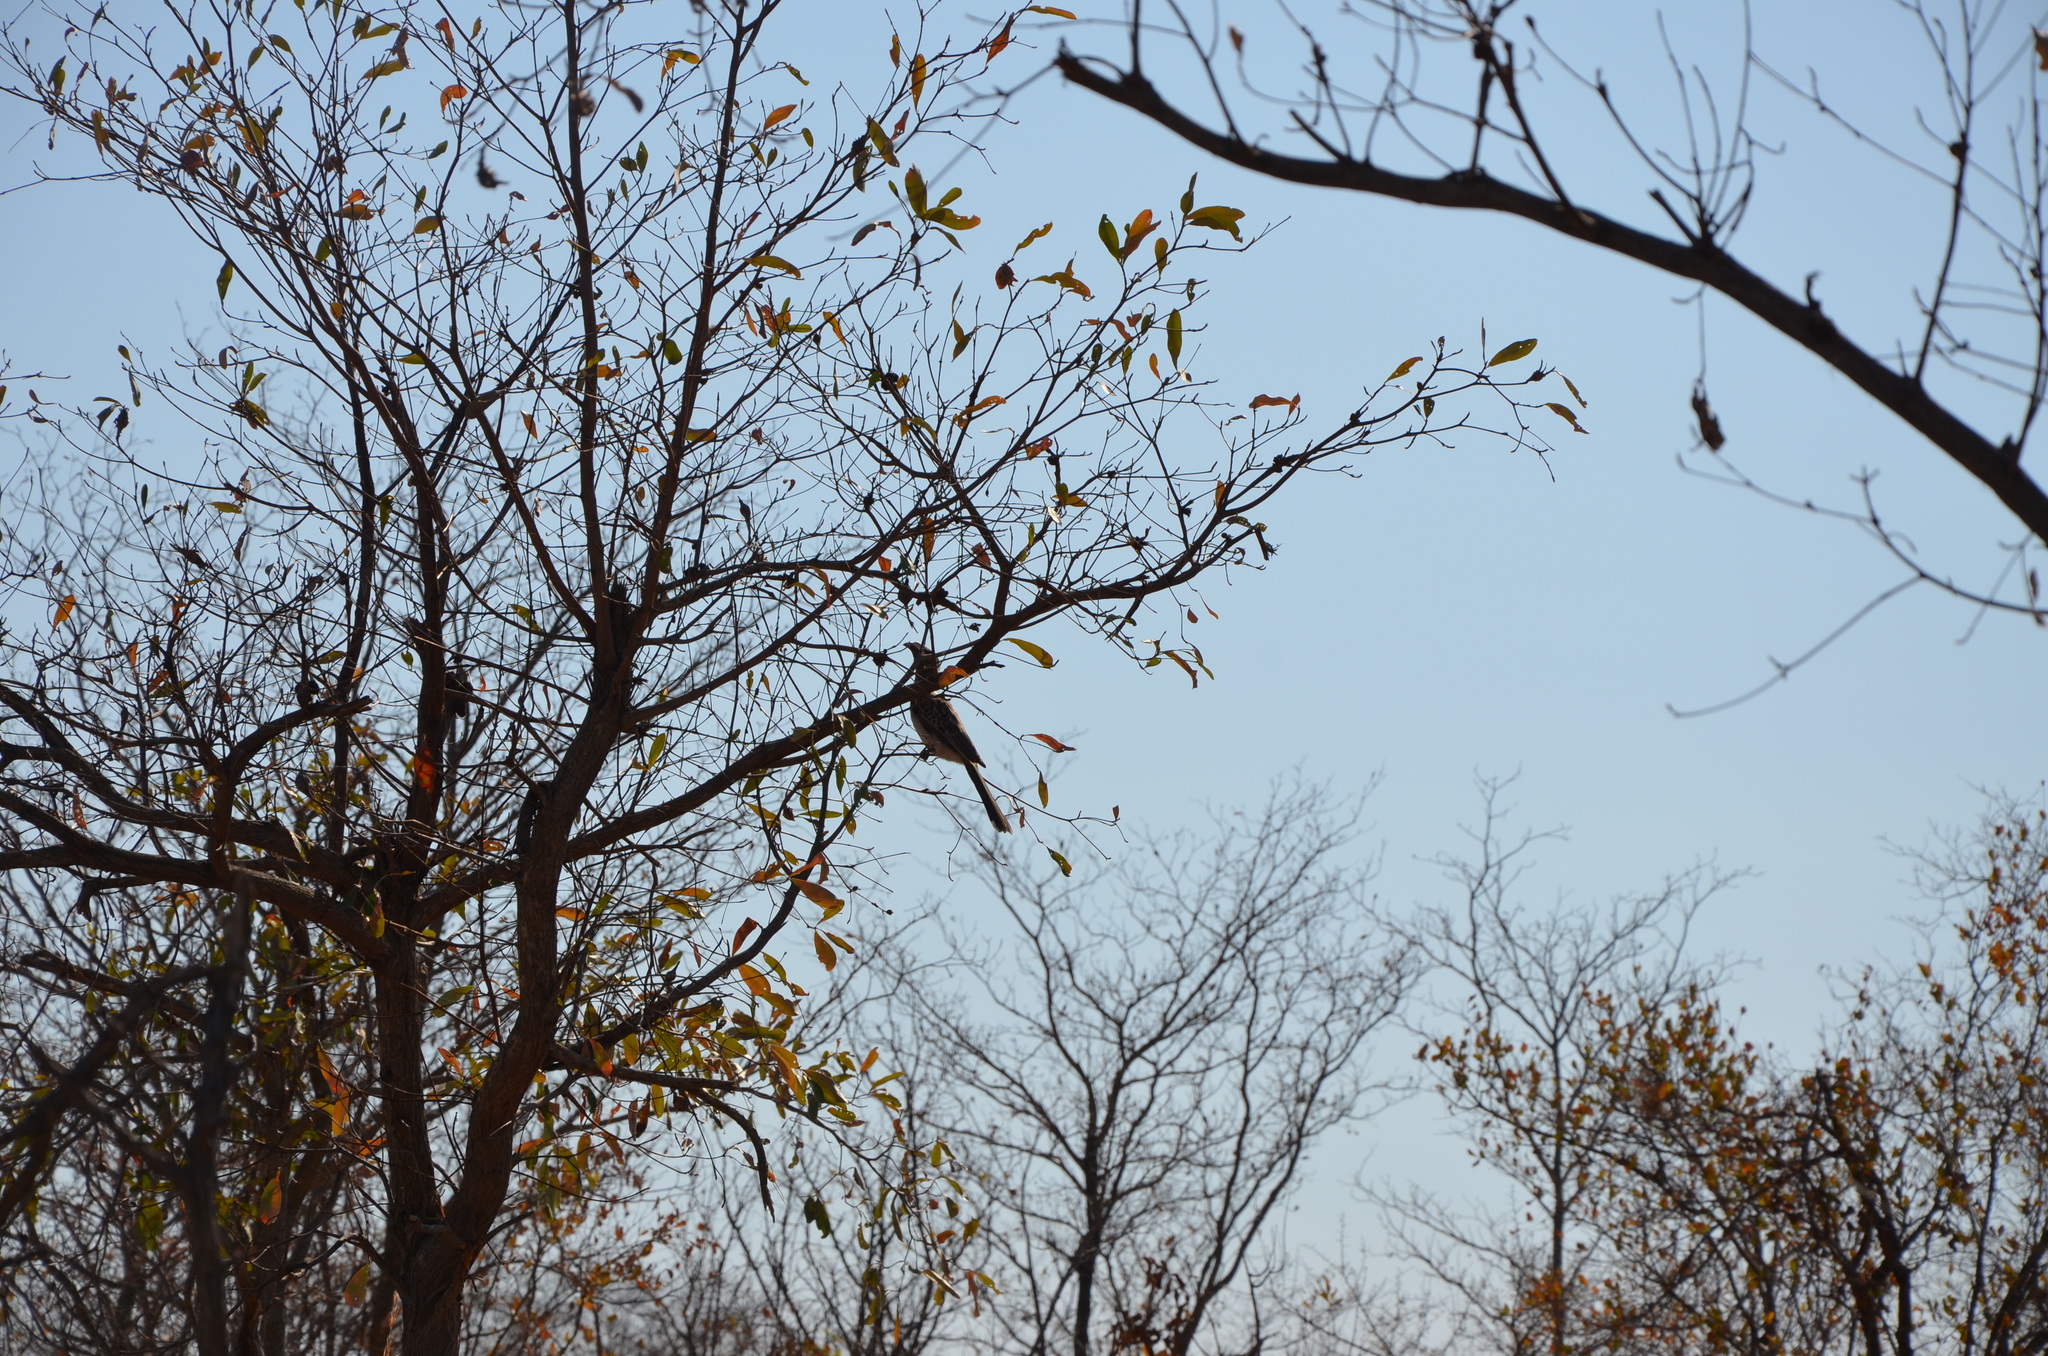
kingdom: Animalia
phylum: Chordata
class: Aves
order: Bucerotiformes
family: Bucerotidae
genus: Lophoceros
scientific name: Lophoceros nasutus
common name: African grey hornbill
